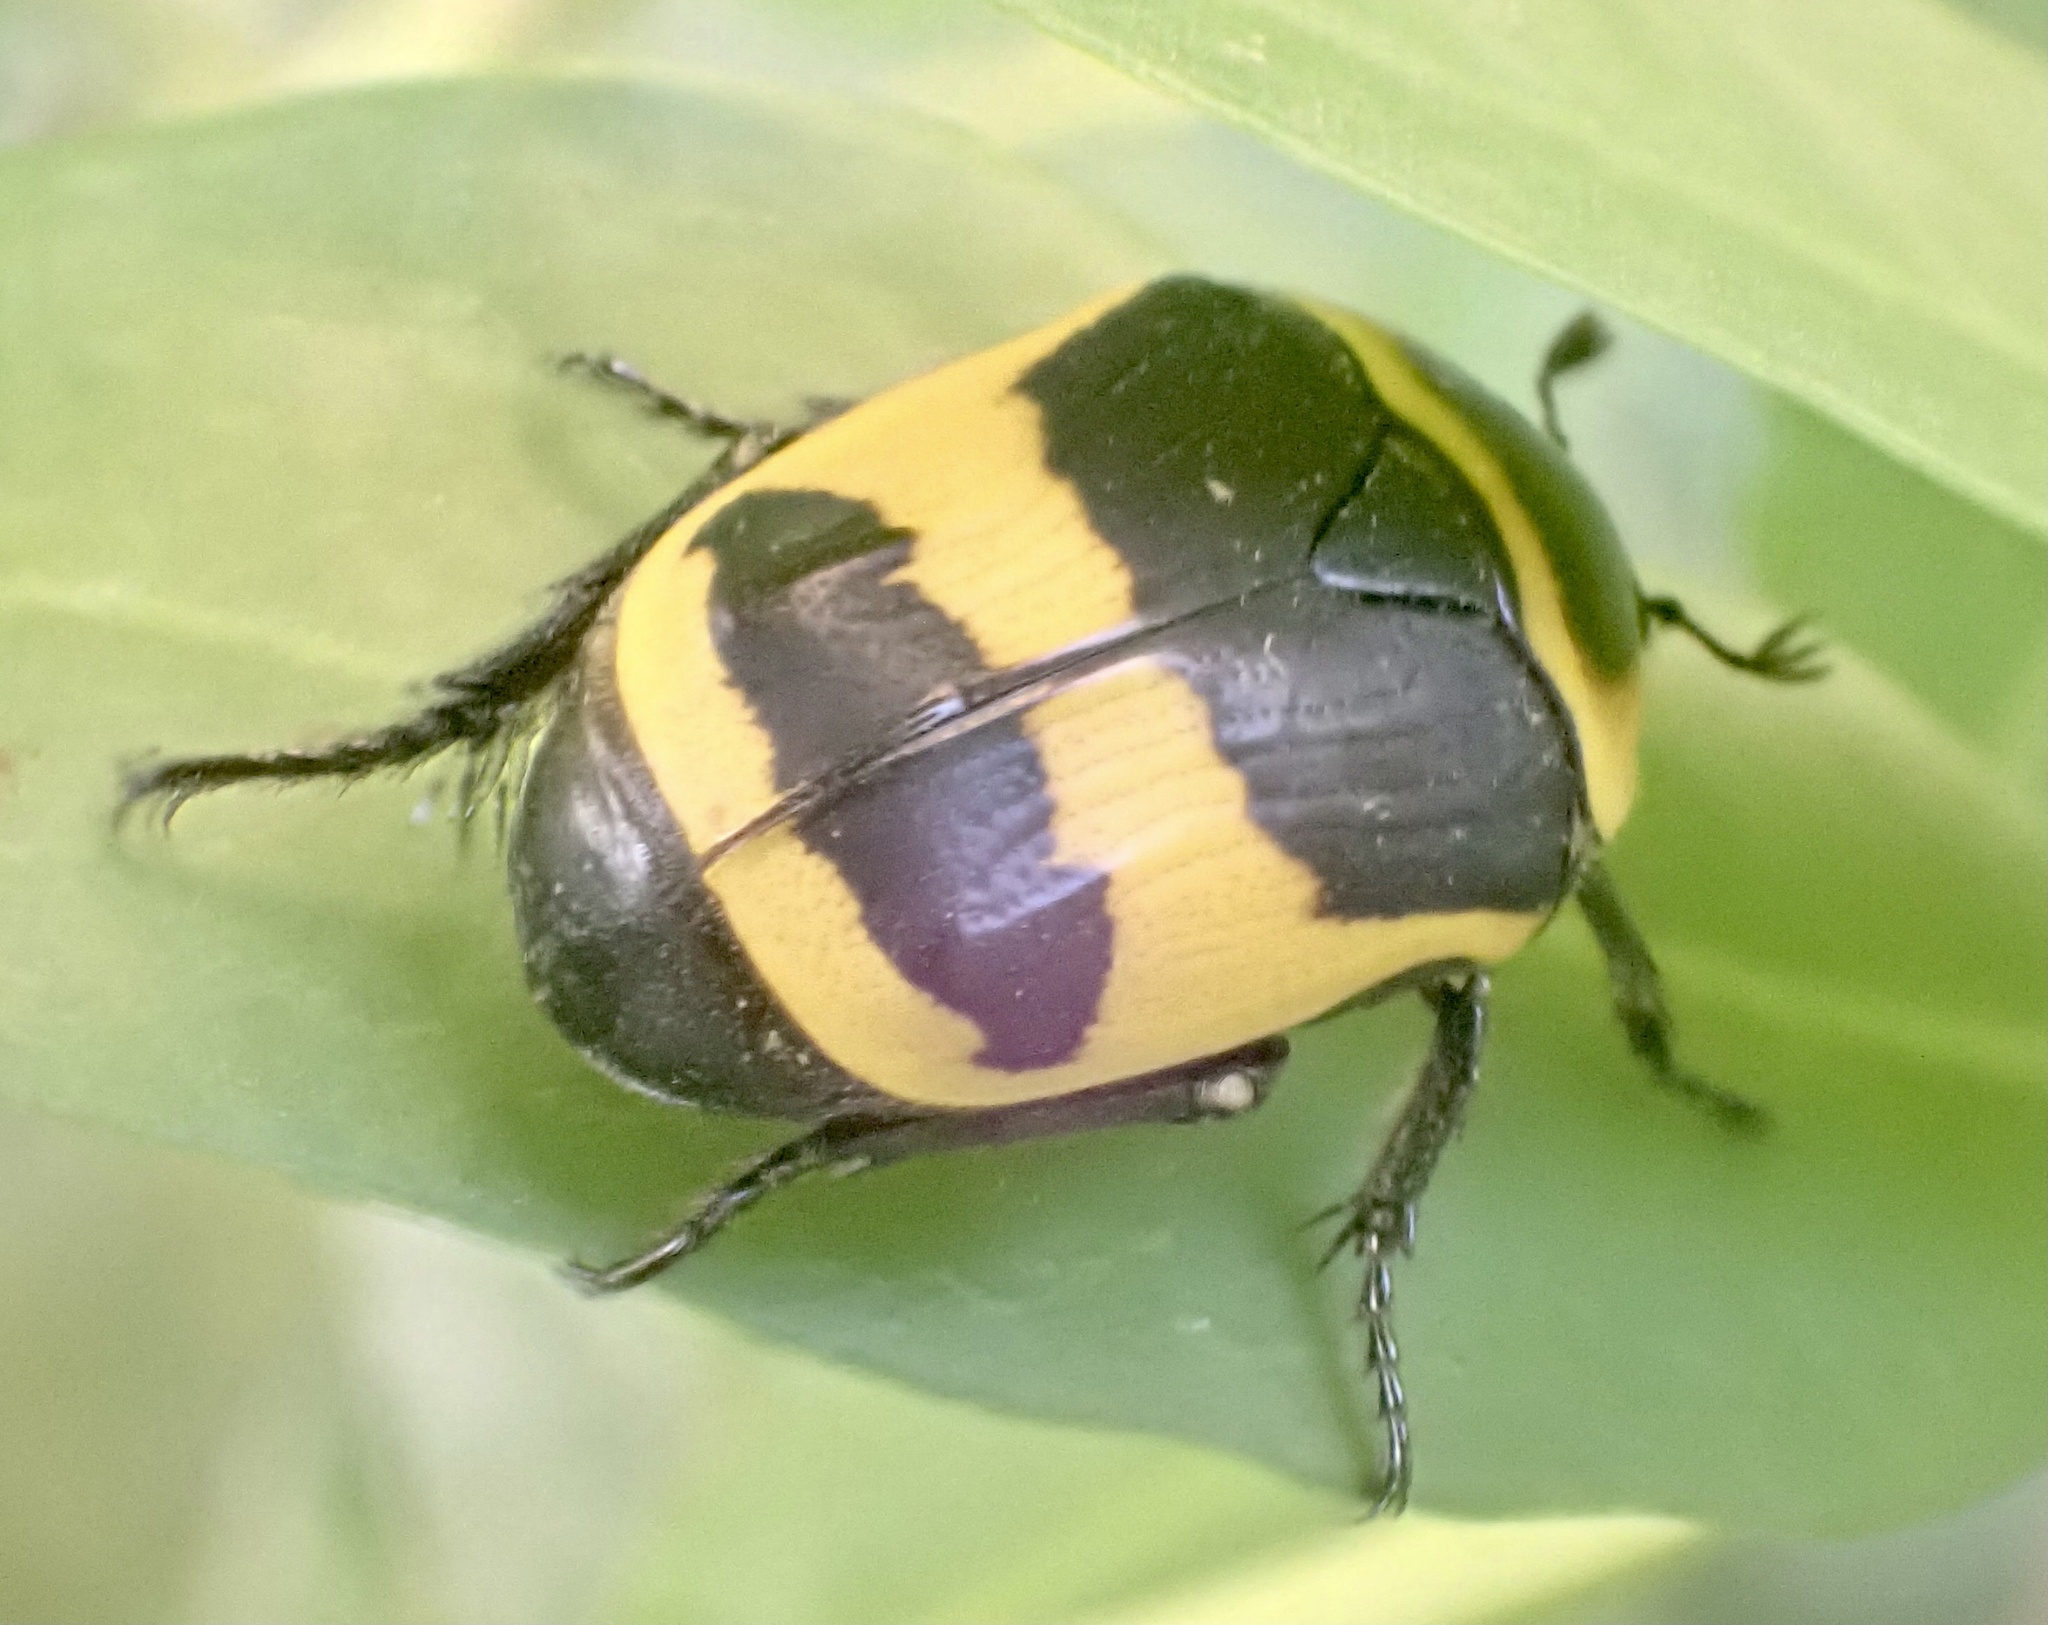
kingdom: Animalia
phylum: Arthropoda
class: Insecta
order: Coleoptera
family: Scarabaeidae
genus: Pachnoda
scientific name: Pachnoda savignyi
